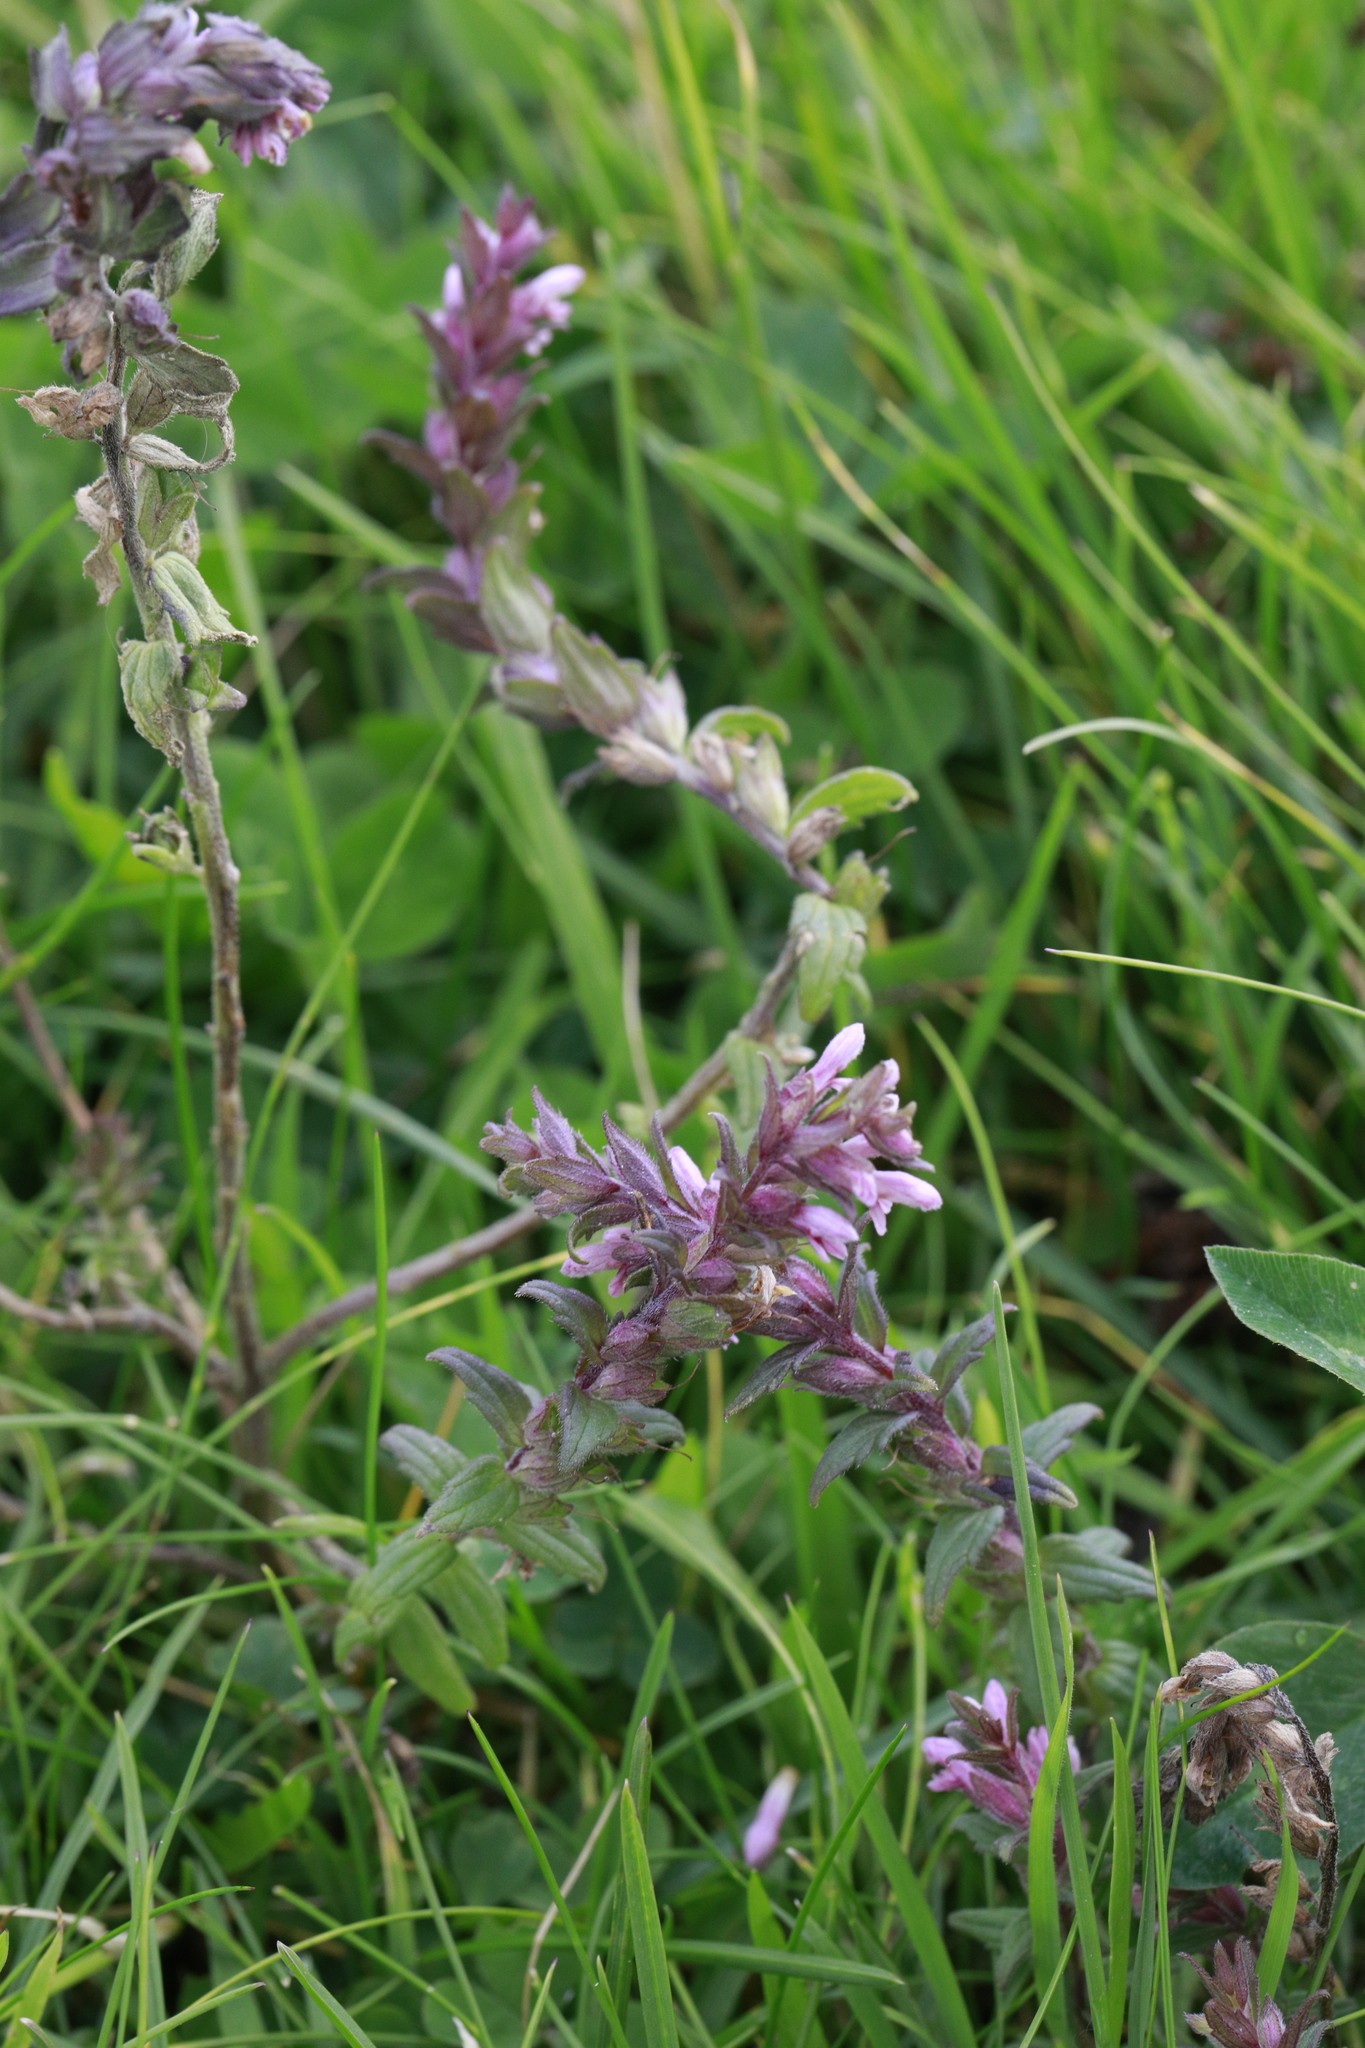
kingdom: Plantae
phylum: Tracheophyta
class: Magnoliopsida
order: Lamiales
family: Orobanchaceae
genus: Odontites
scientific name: Odontites vulgaris
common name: Broomrape
